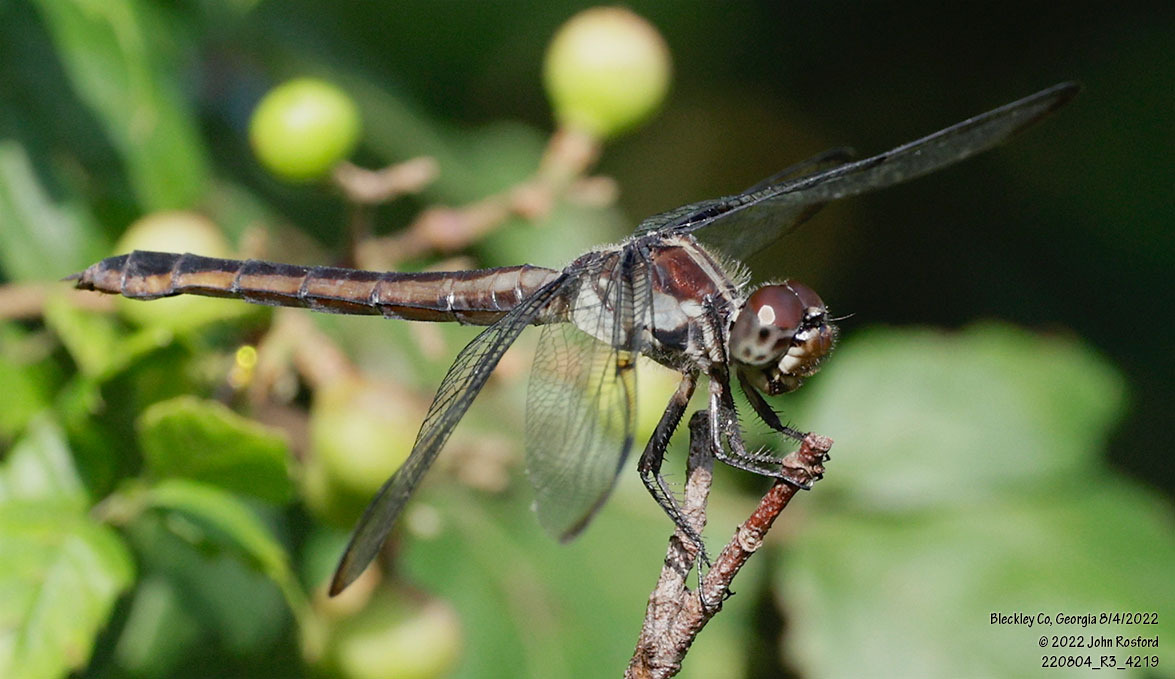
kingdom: Animalia
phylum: Arthropoda
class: Insecta
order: Odonata
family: Libellulidae
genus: Libellula
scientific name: Libellula incesta
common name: Slaty skimmer
